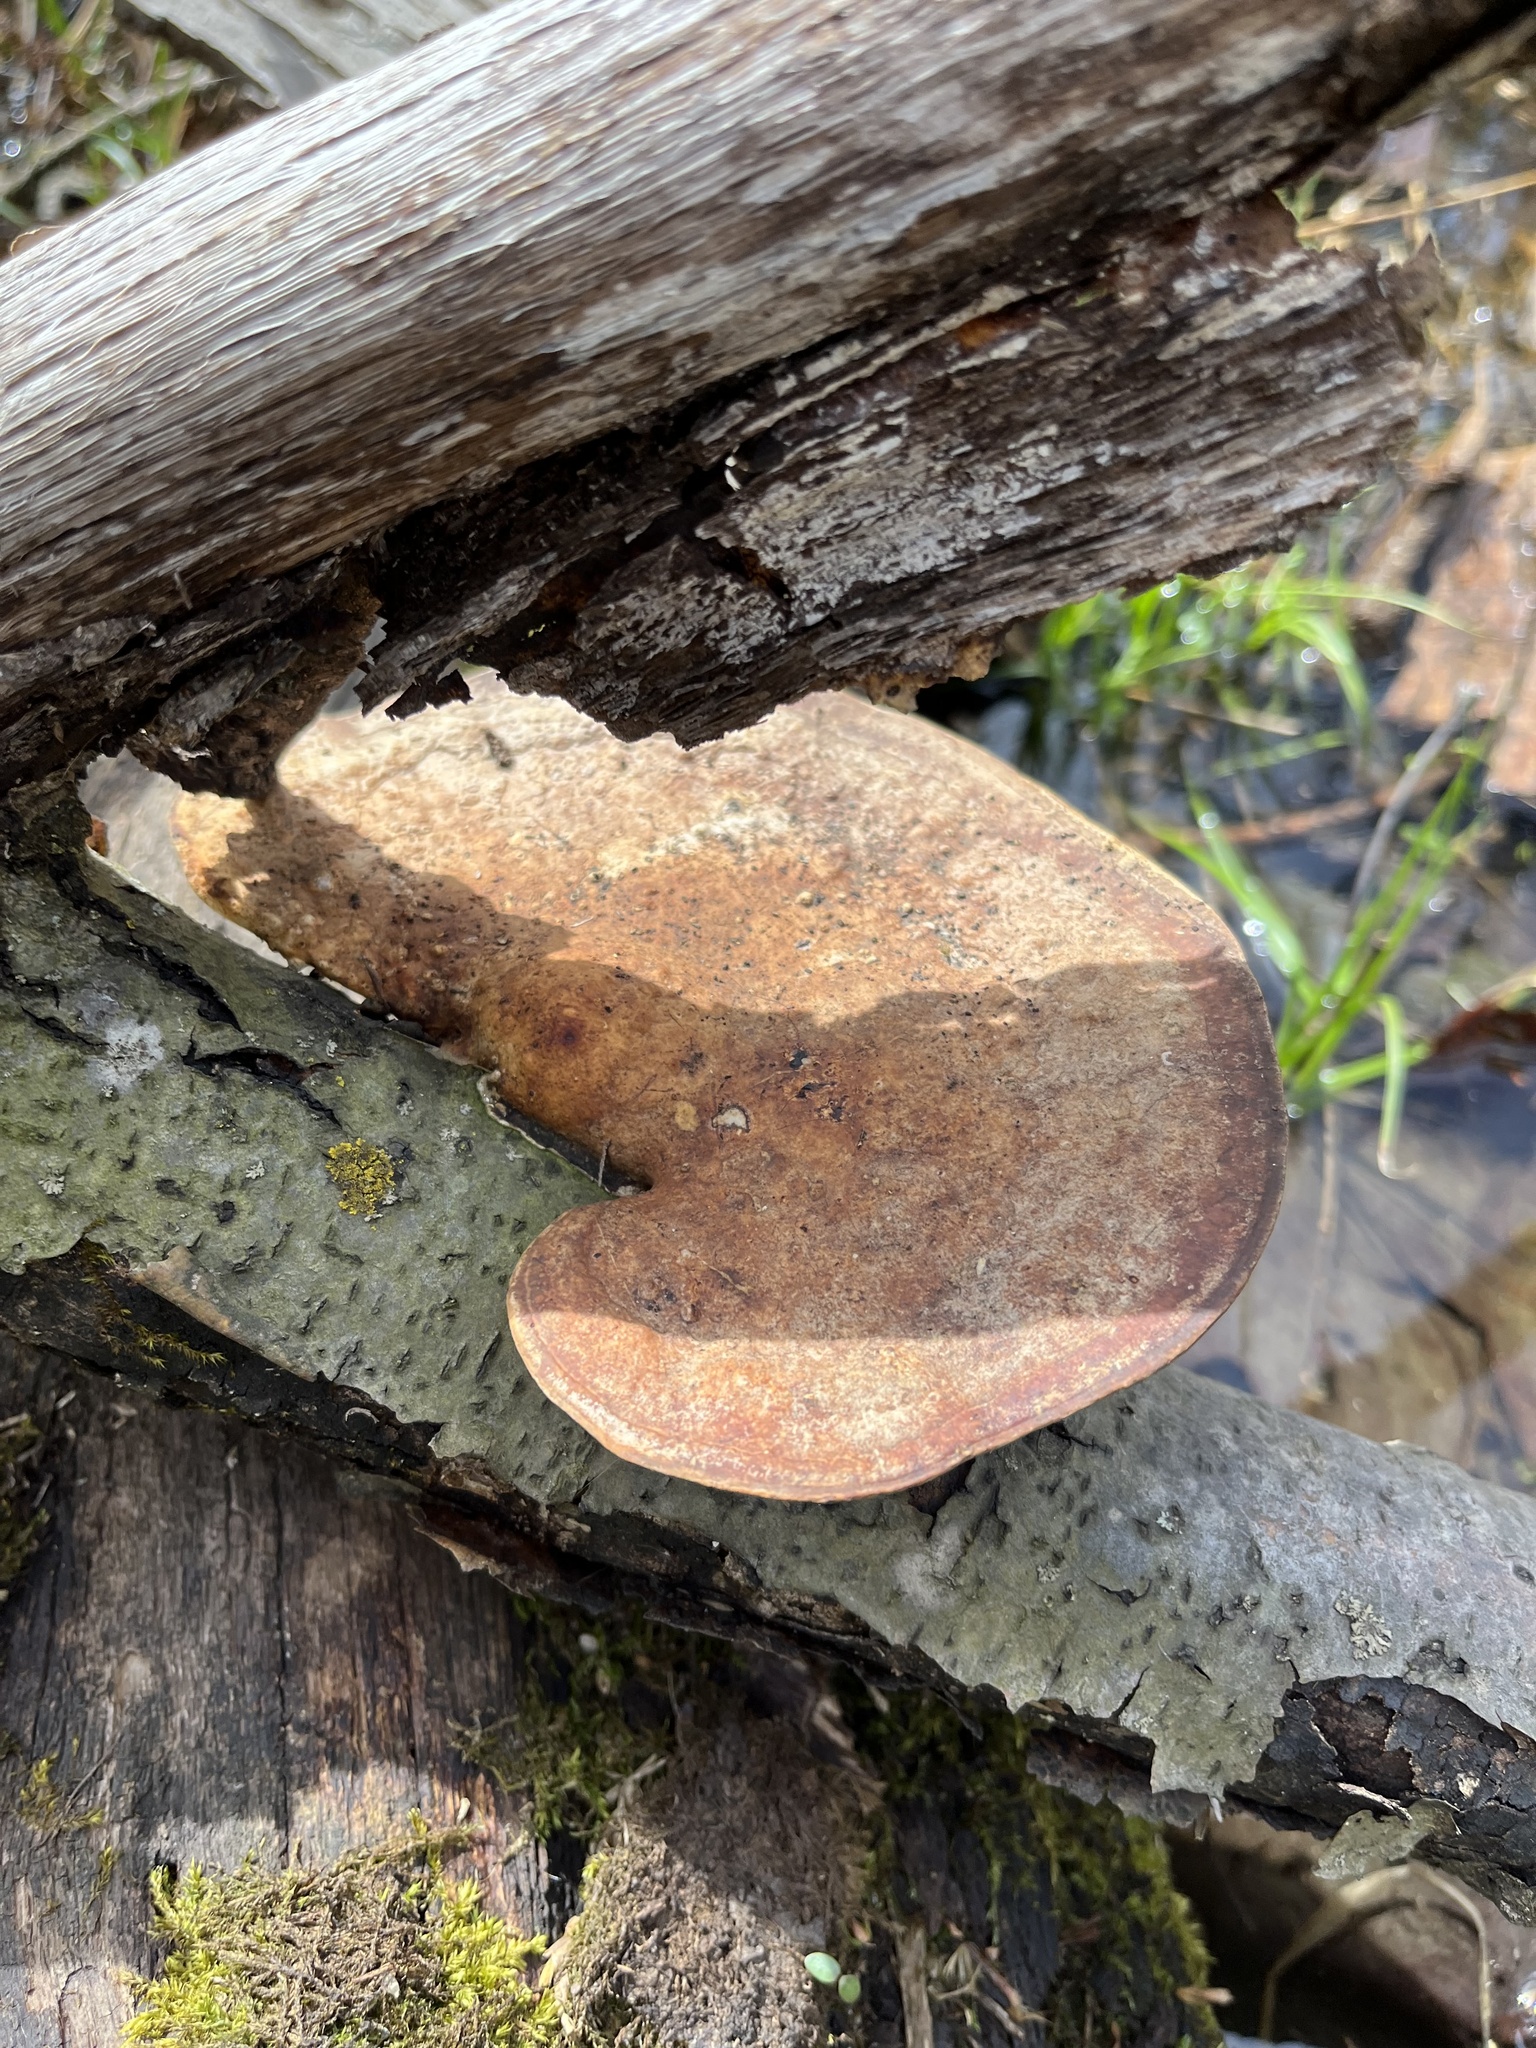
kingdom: Fungi
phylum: Basidiomycota
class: Agaricomycetes
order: Polyporales
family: Polyporaceae
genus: Trametes
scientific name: Trametes
